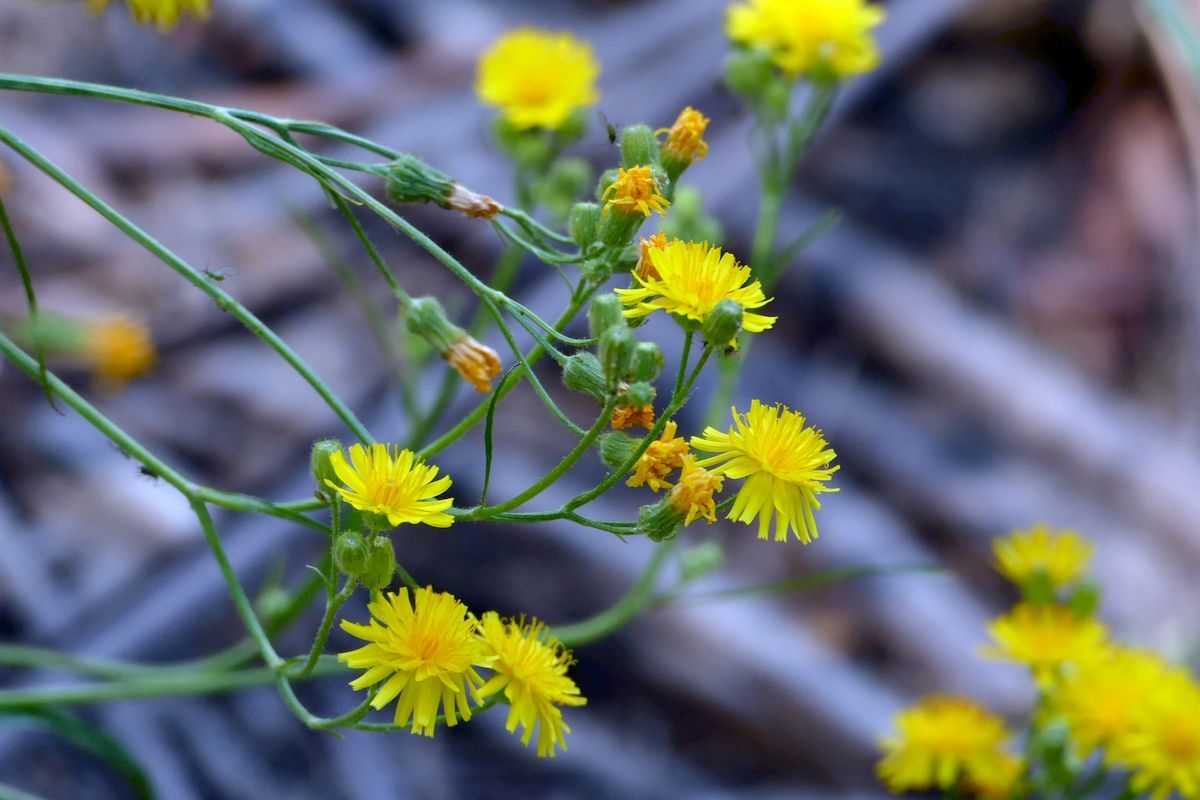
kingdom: Plantae
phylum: Tracheophyta
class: Magnoliopsida
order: Asterales
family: Asteraceae
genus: Crepis
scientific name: Crepis capillaris
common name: Smooth hawksbeard
